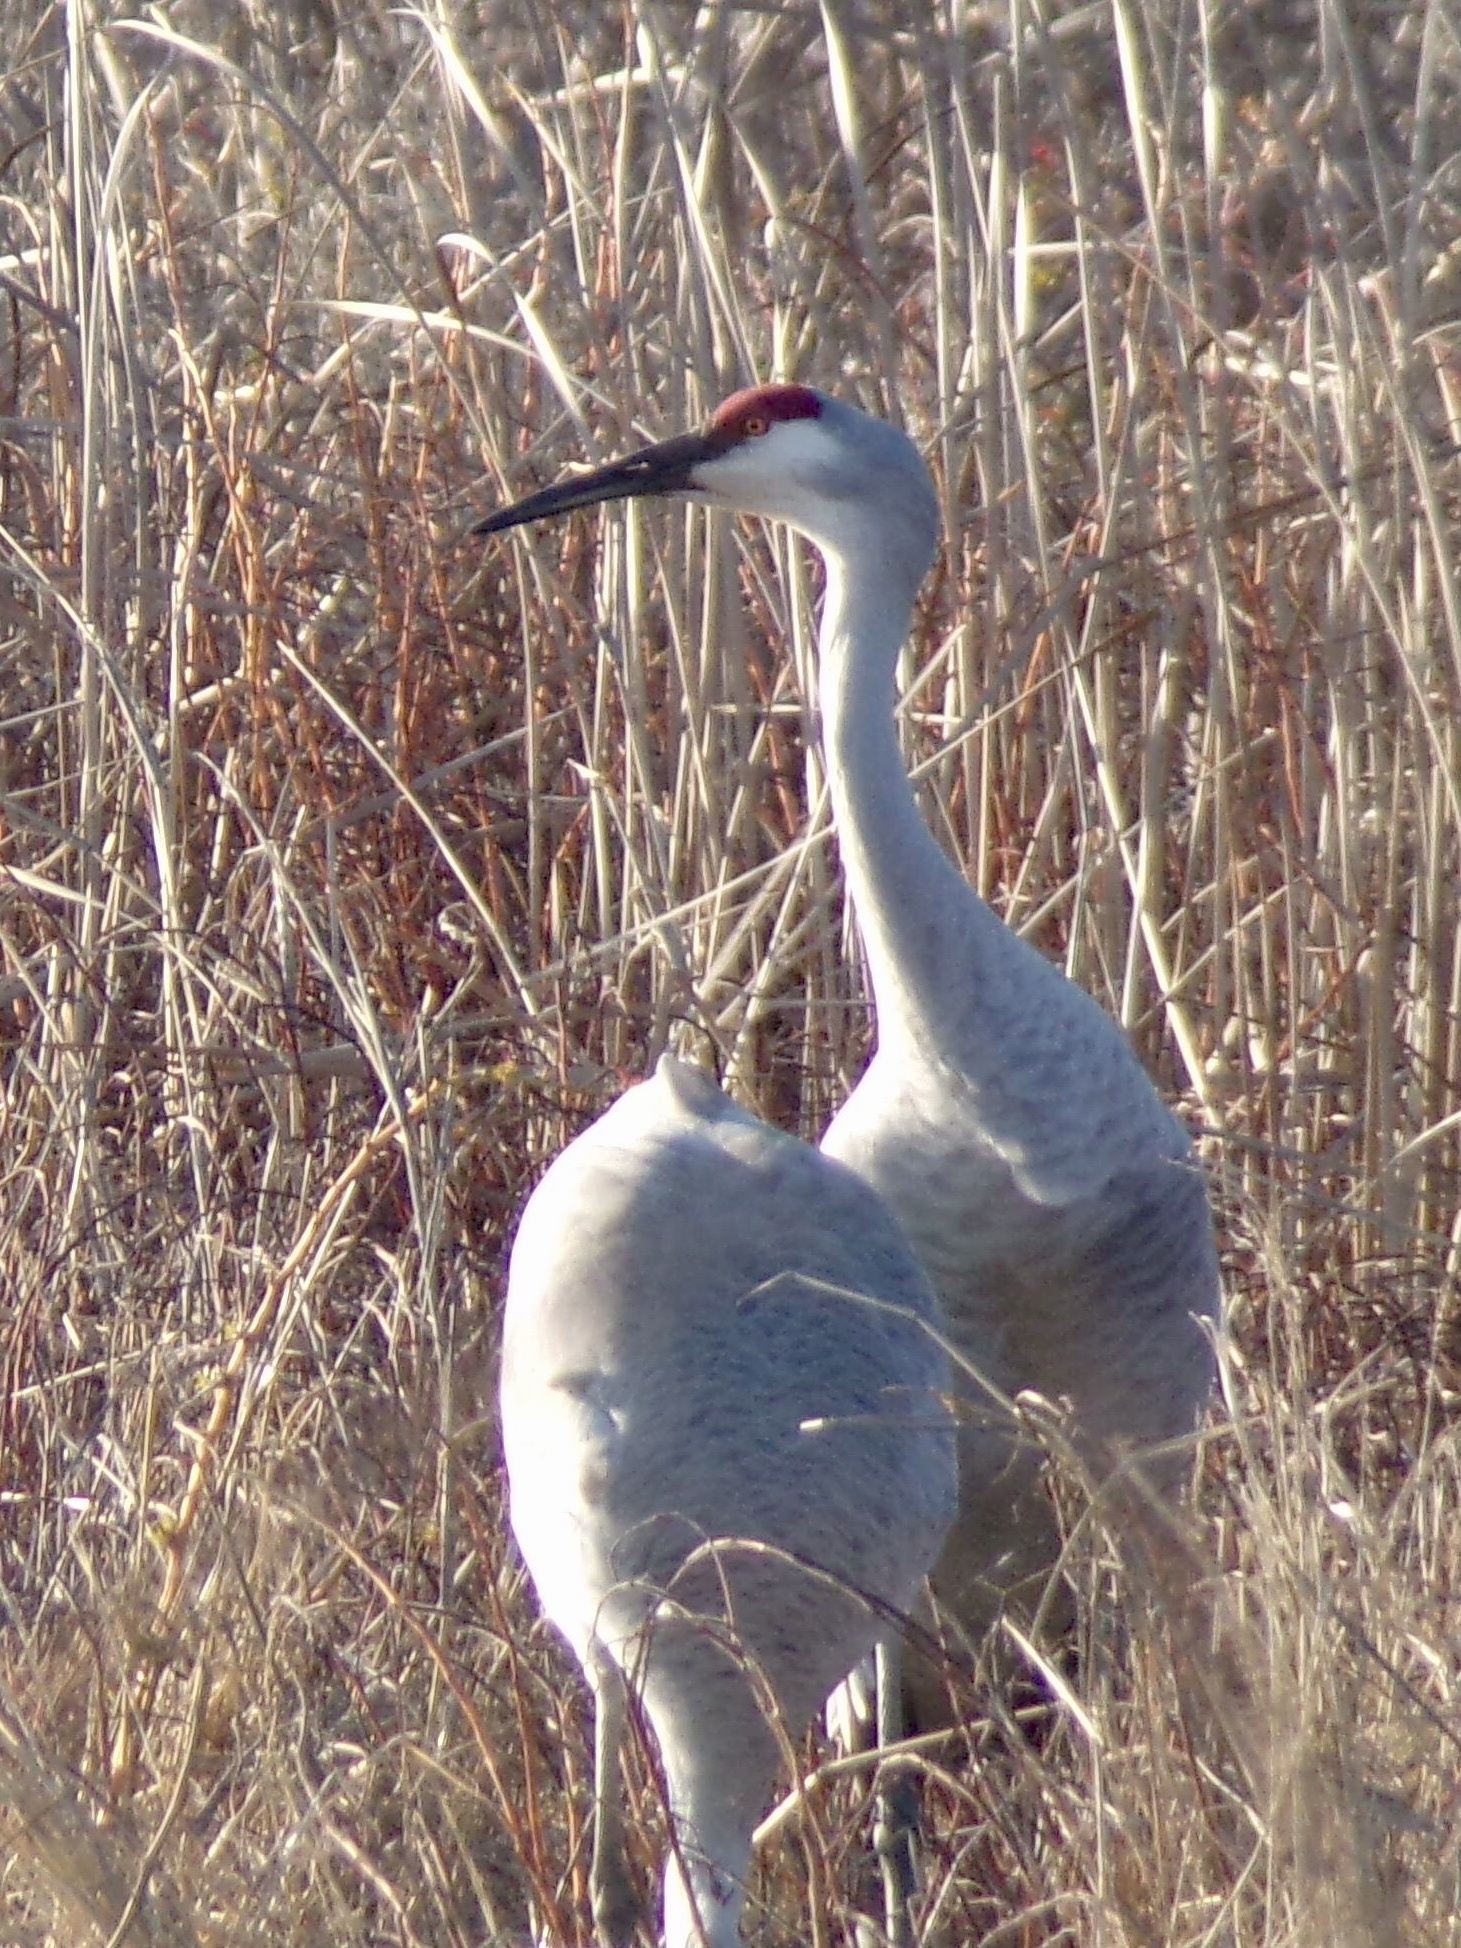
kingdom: Animalia
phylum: Chordata
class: Aves
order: Gruiformes
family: Gruidae
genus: Grus
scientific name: Grus canadensis
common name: Sandhill crane
